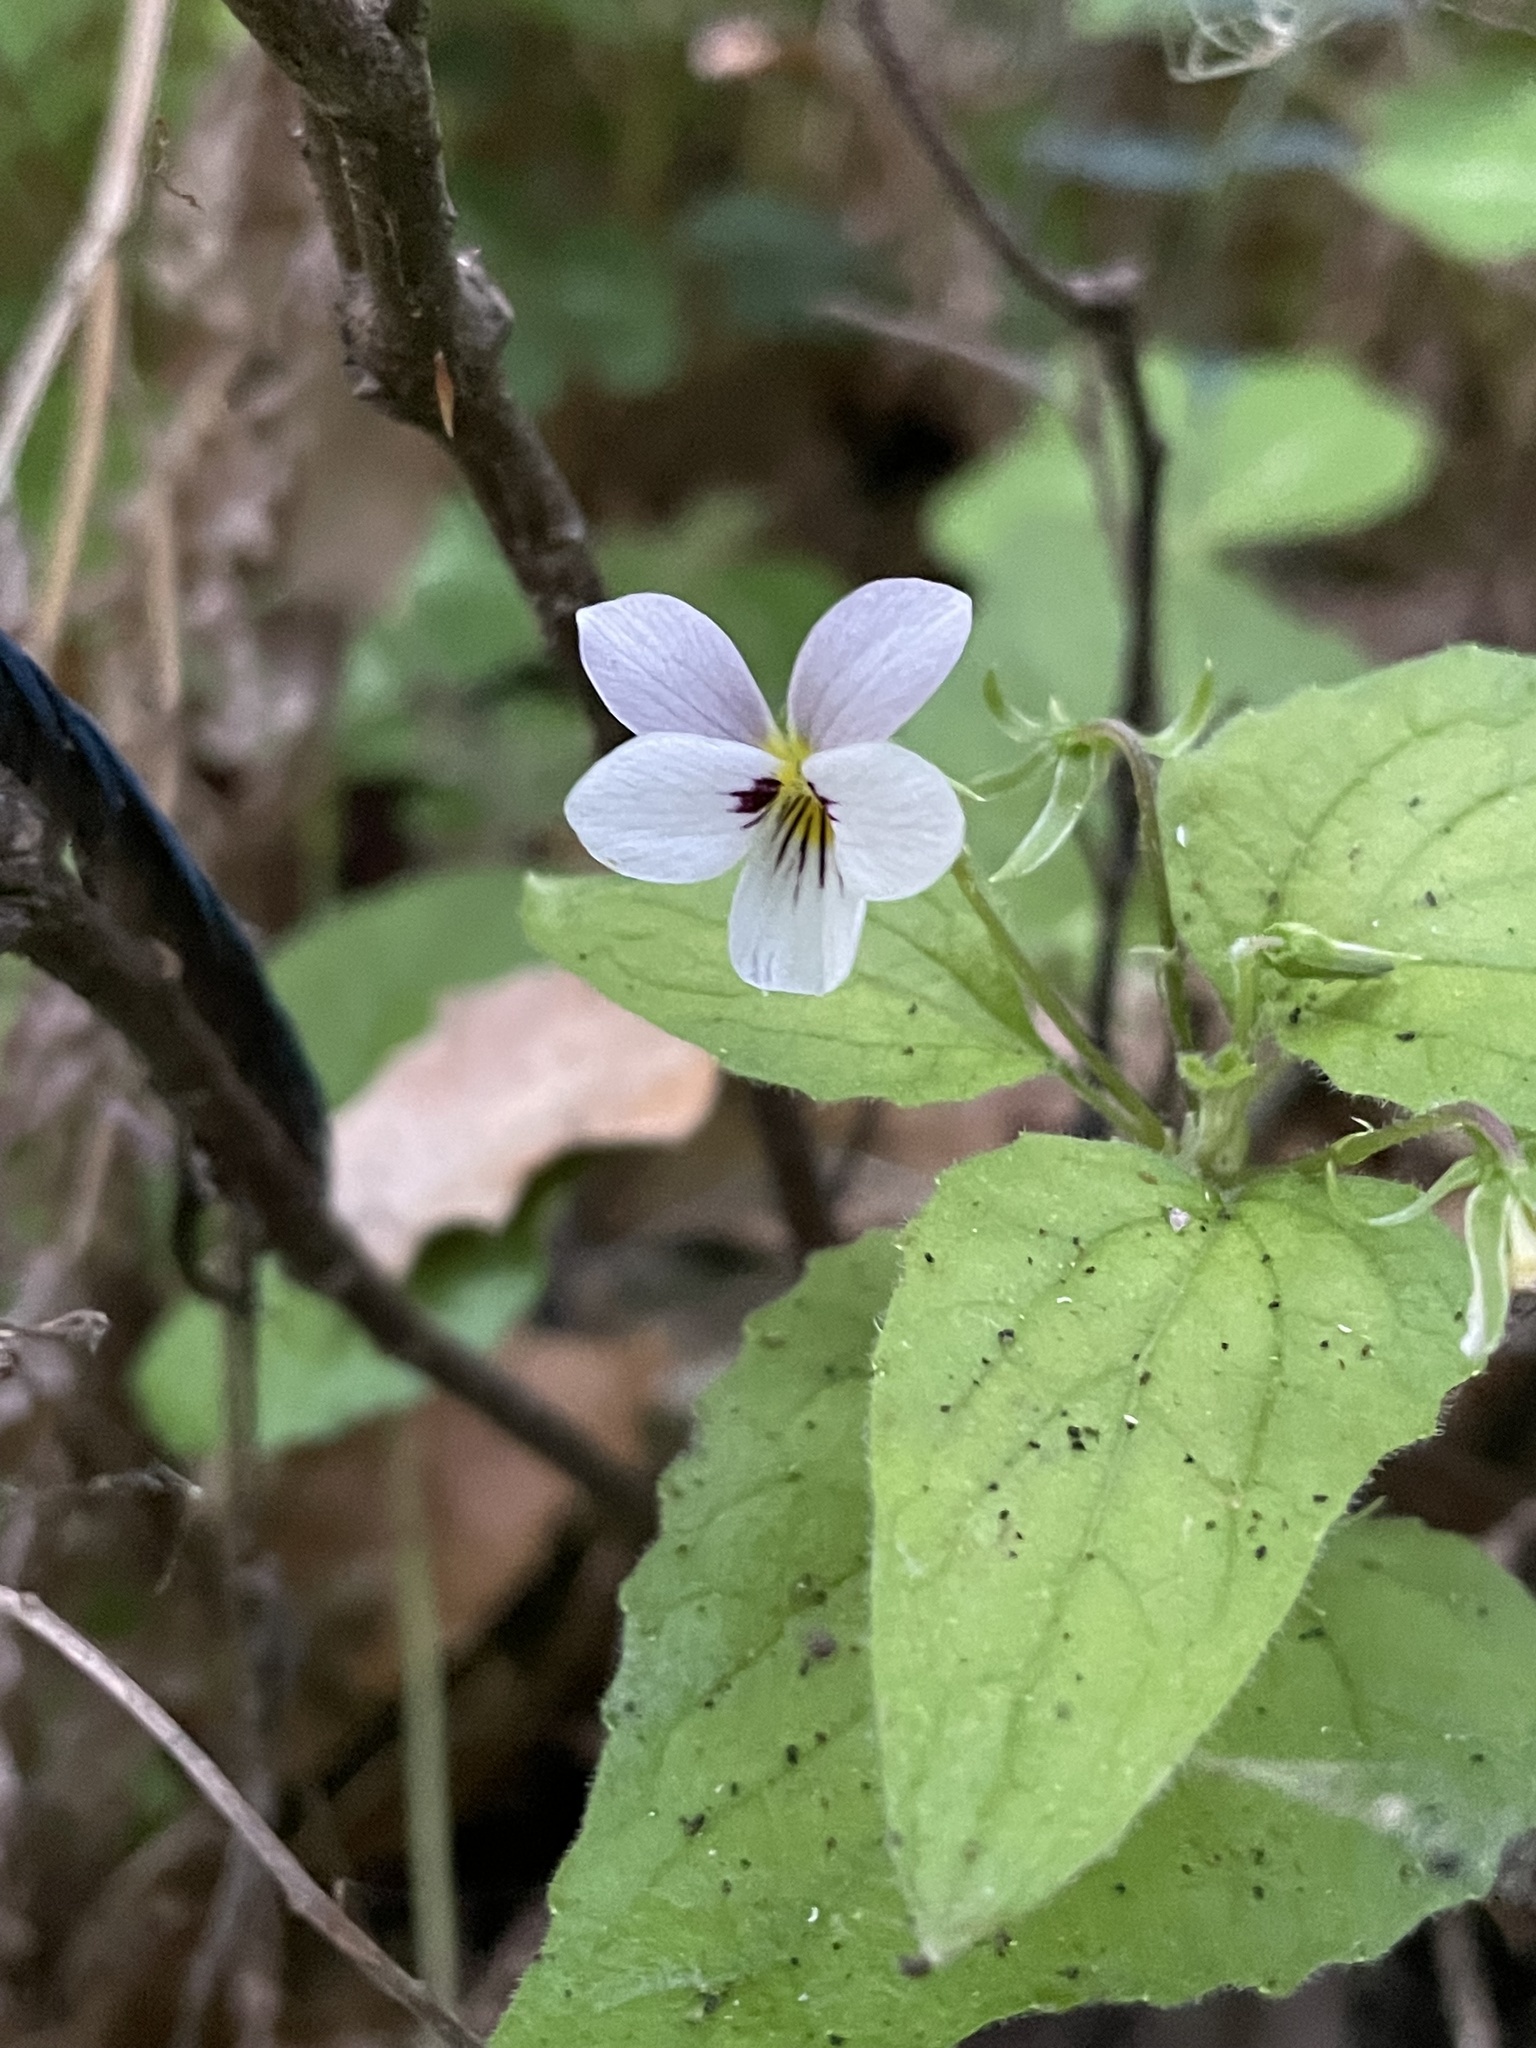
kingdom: Plantae
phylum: Tracheophyta
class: Magnoliopsida
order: Malpighiales
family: Violaceae
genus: Viola
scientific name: Viola ocellata
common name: Western heart's ease
